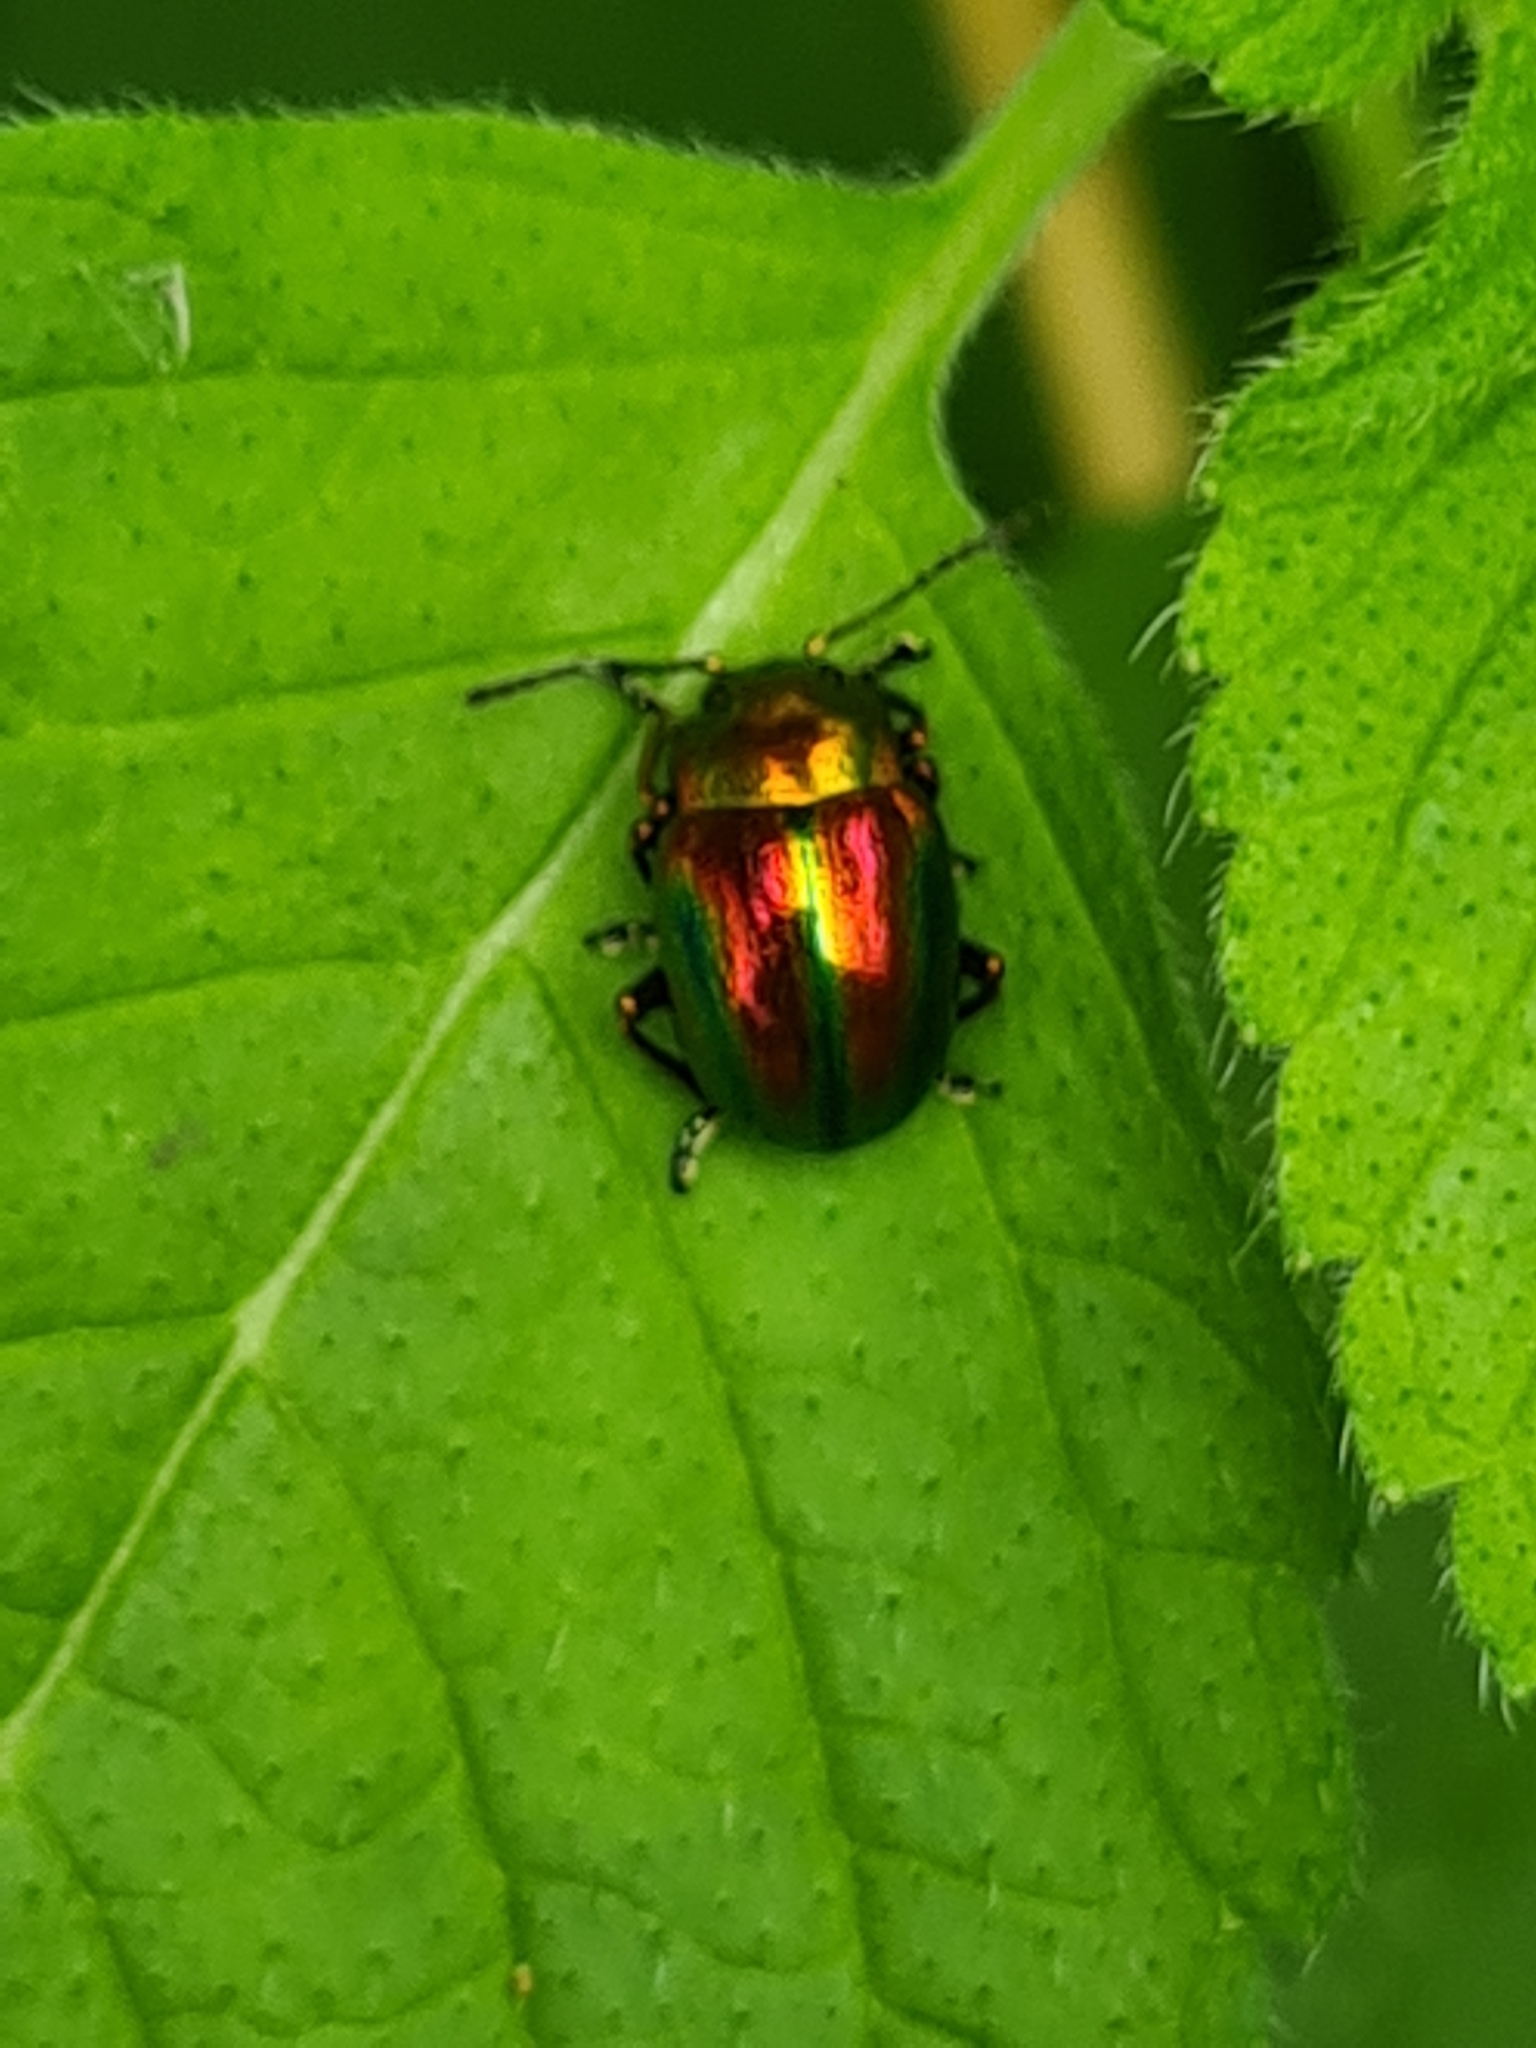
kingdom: Animalia
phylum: Arthropoda
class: Insecta
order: Coleoptera
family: Chrysomelidae
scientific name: Chrysomelidae
